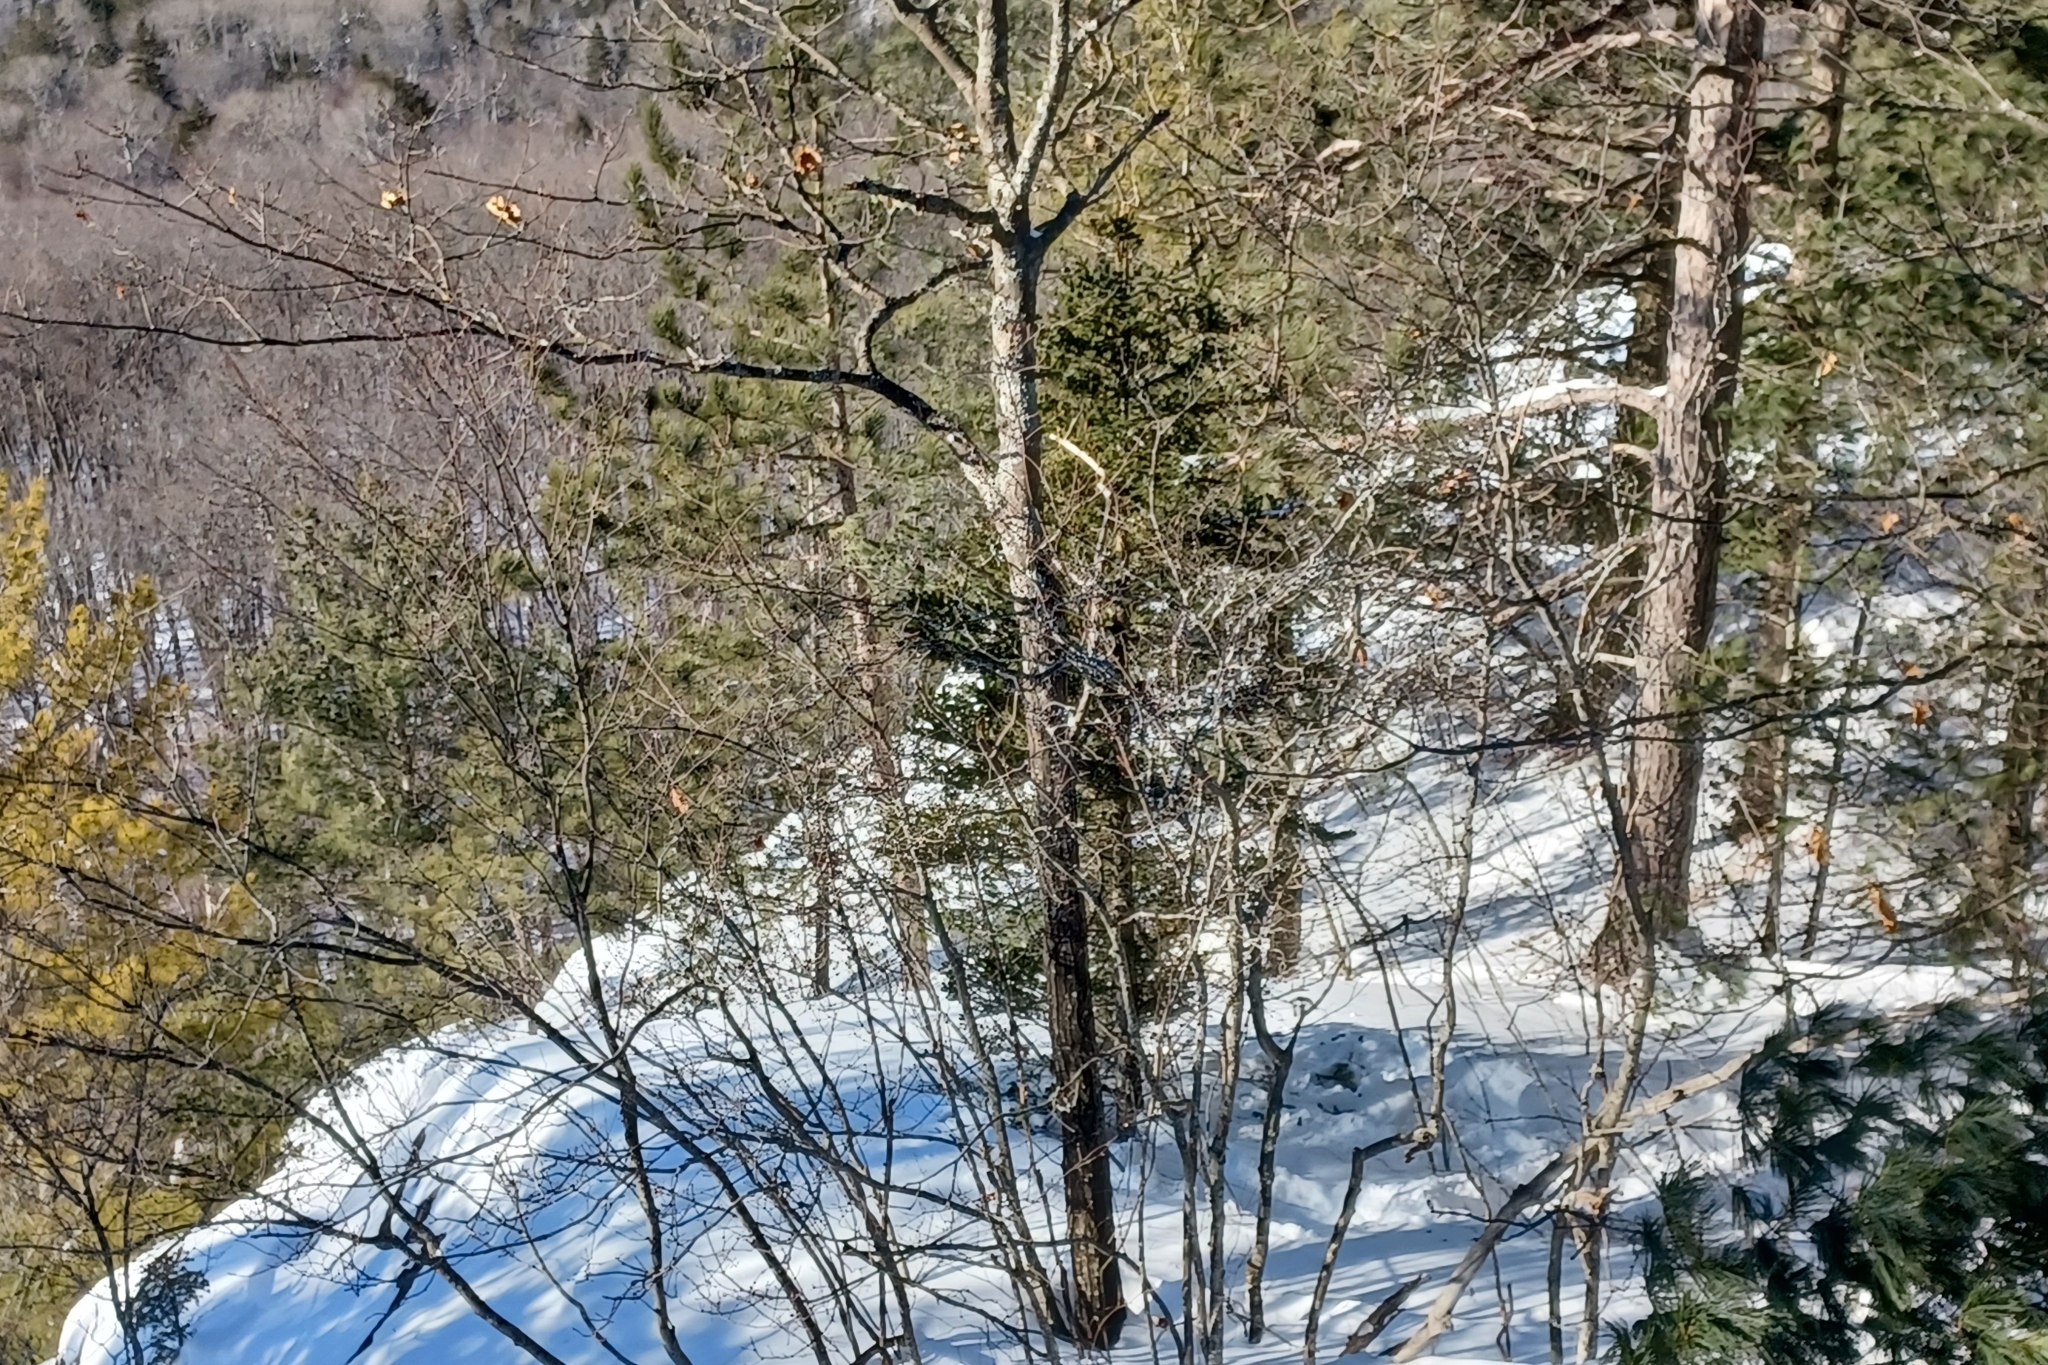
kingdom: Plantae
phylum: Tracheophyta
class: Pinopsida
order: Pinales
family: Pinaceae
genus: Picea
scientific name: Picea glauca
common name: White spruce
